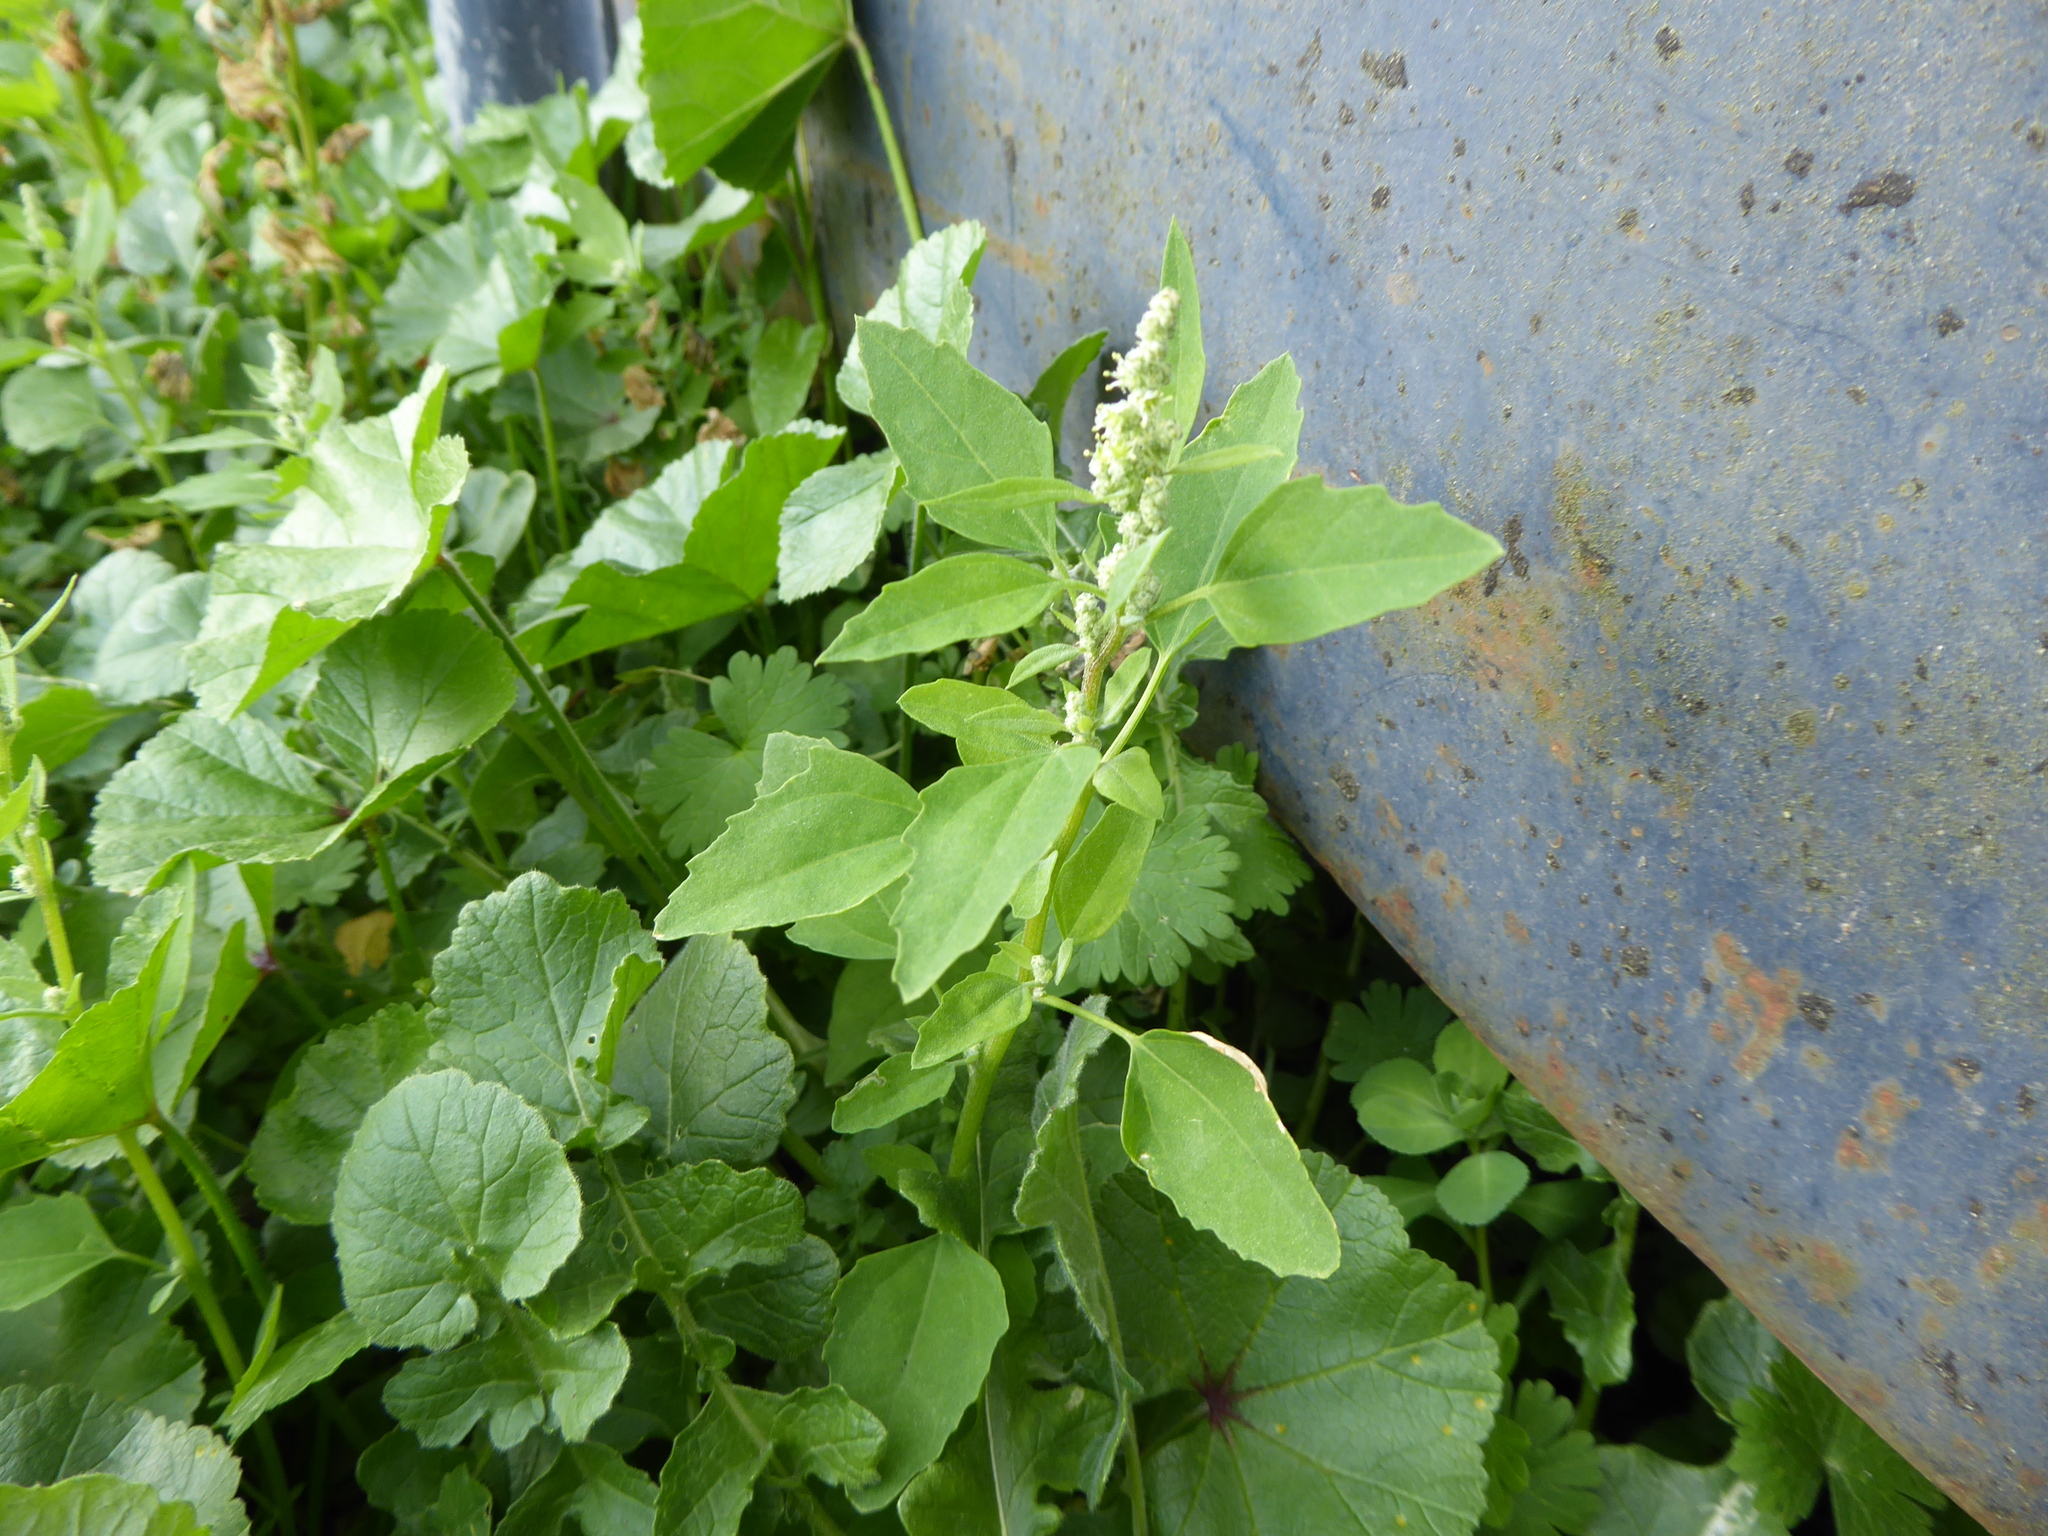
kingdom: Plantae
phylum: Tracheophyta
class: Magnoliopsida
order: Caryophyllales
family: Amaranthaceae
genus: Chenopodium
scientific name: Chenopodium album
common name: Fat-hen
